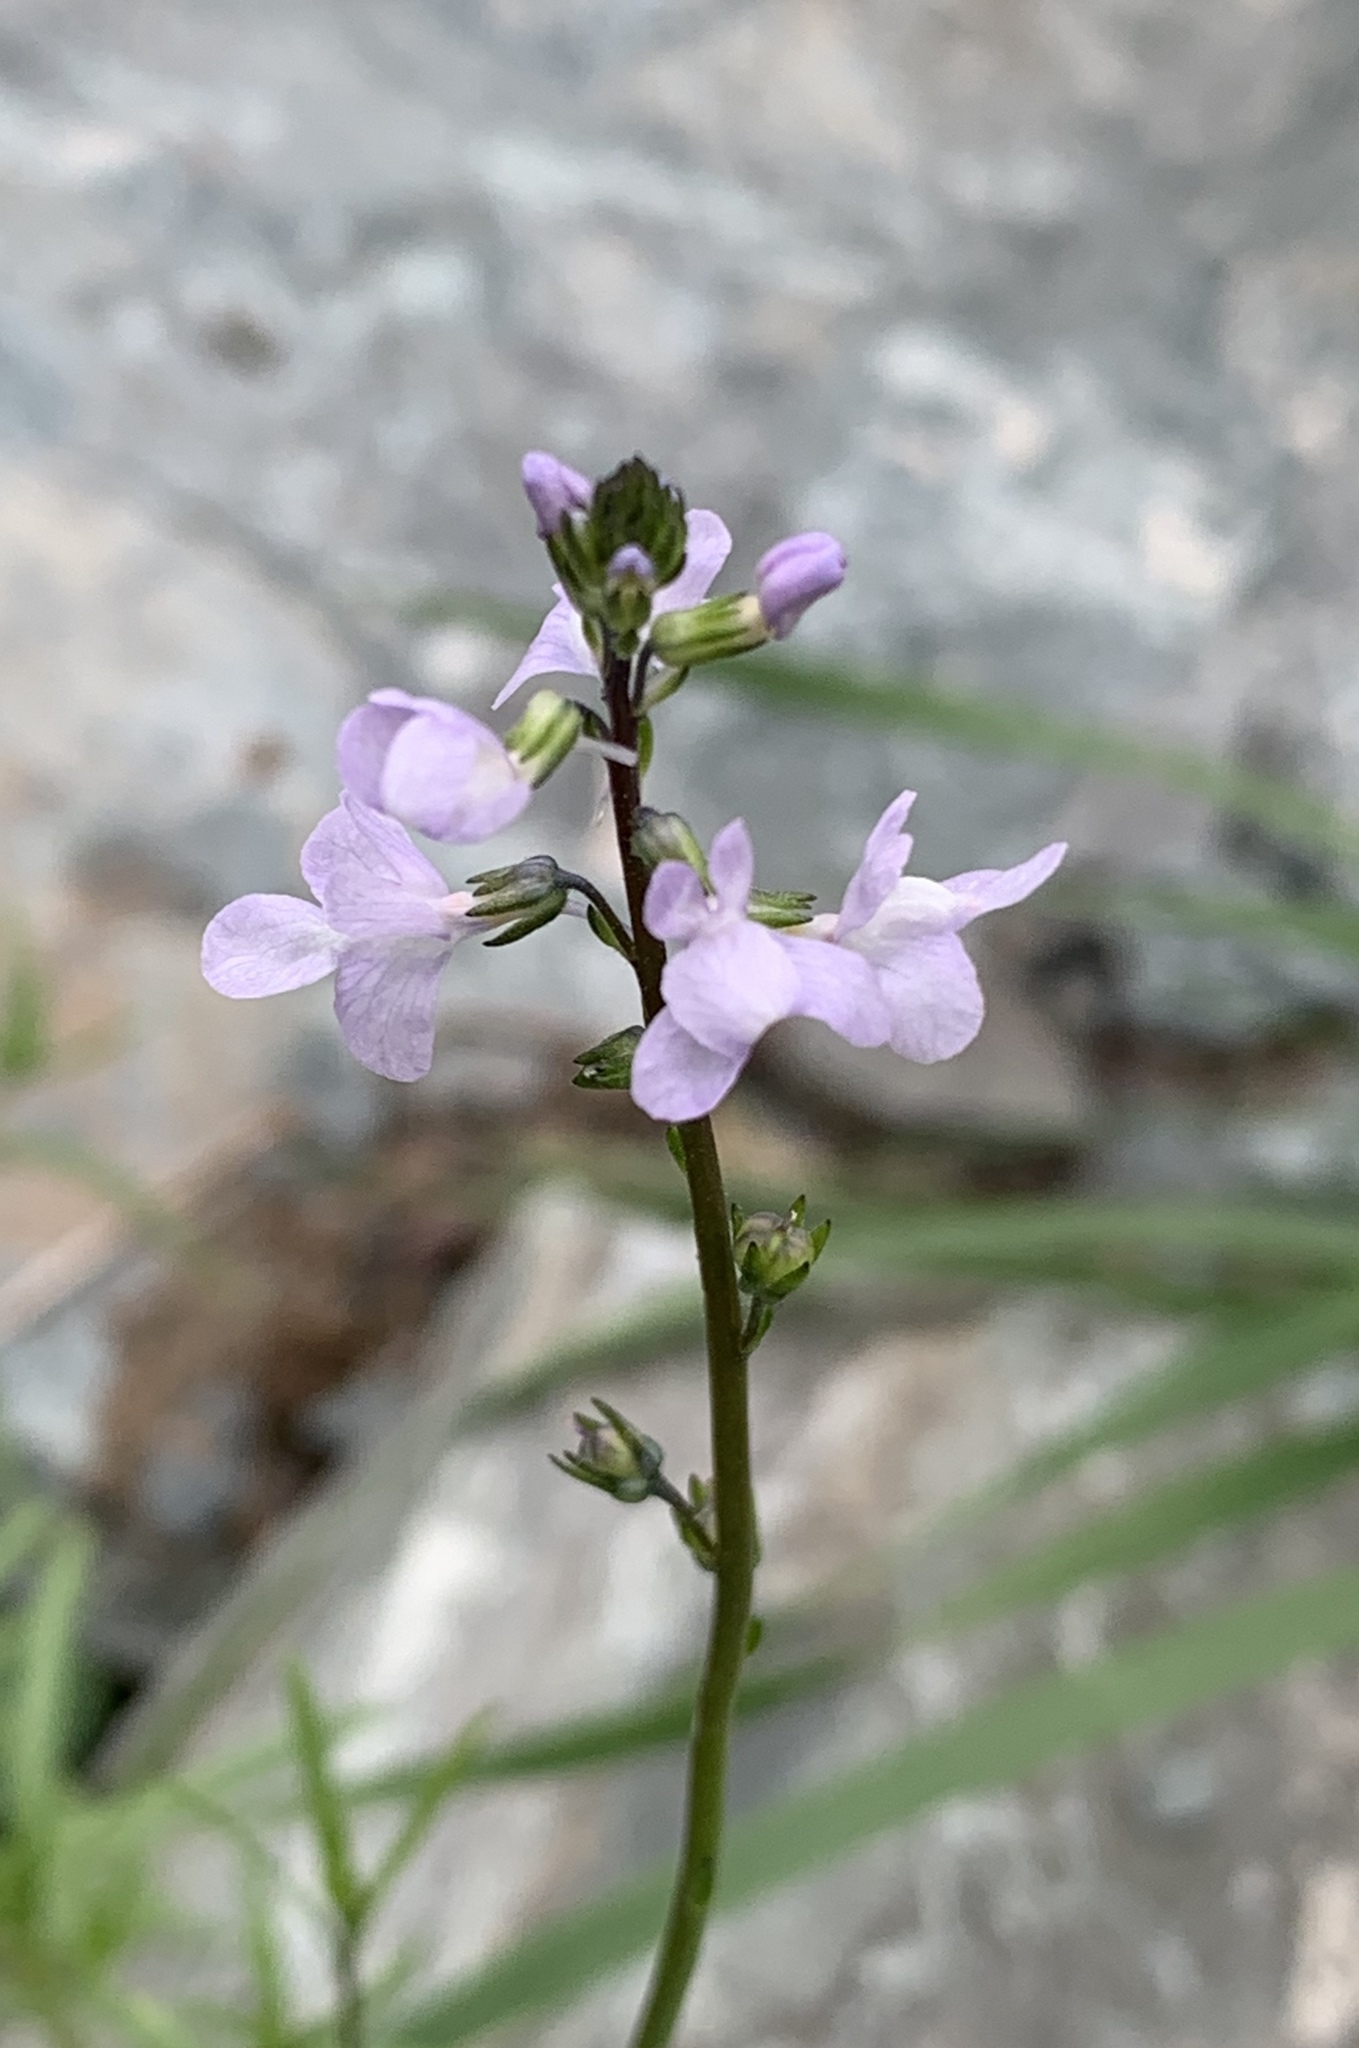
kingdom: Plantae
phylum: Tracheophyta
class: Magnoliopsida
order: Lamiales
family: Plantaginaceae
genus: Nuttallanthus
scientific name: Nuttallanthus canadensis
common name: Blue toadflax
